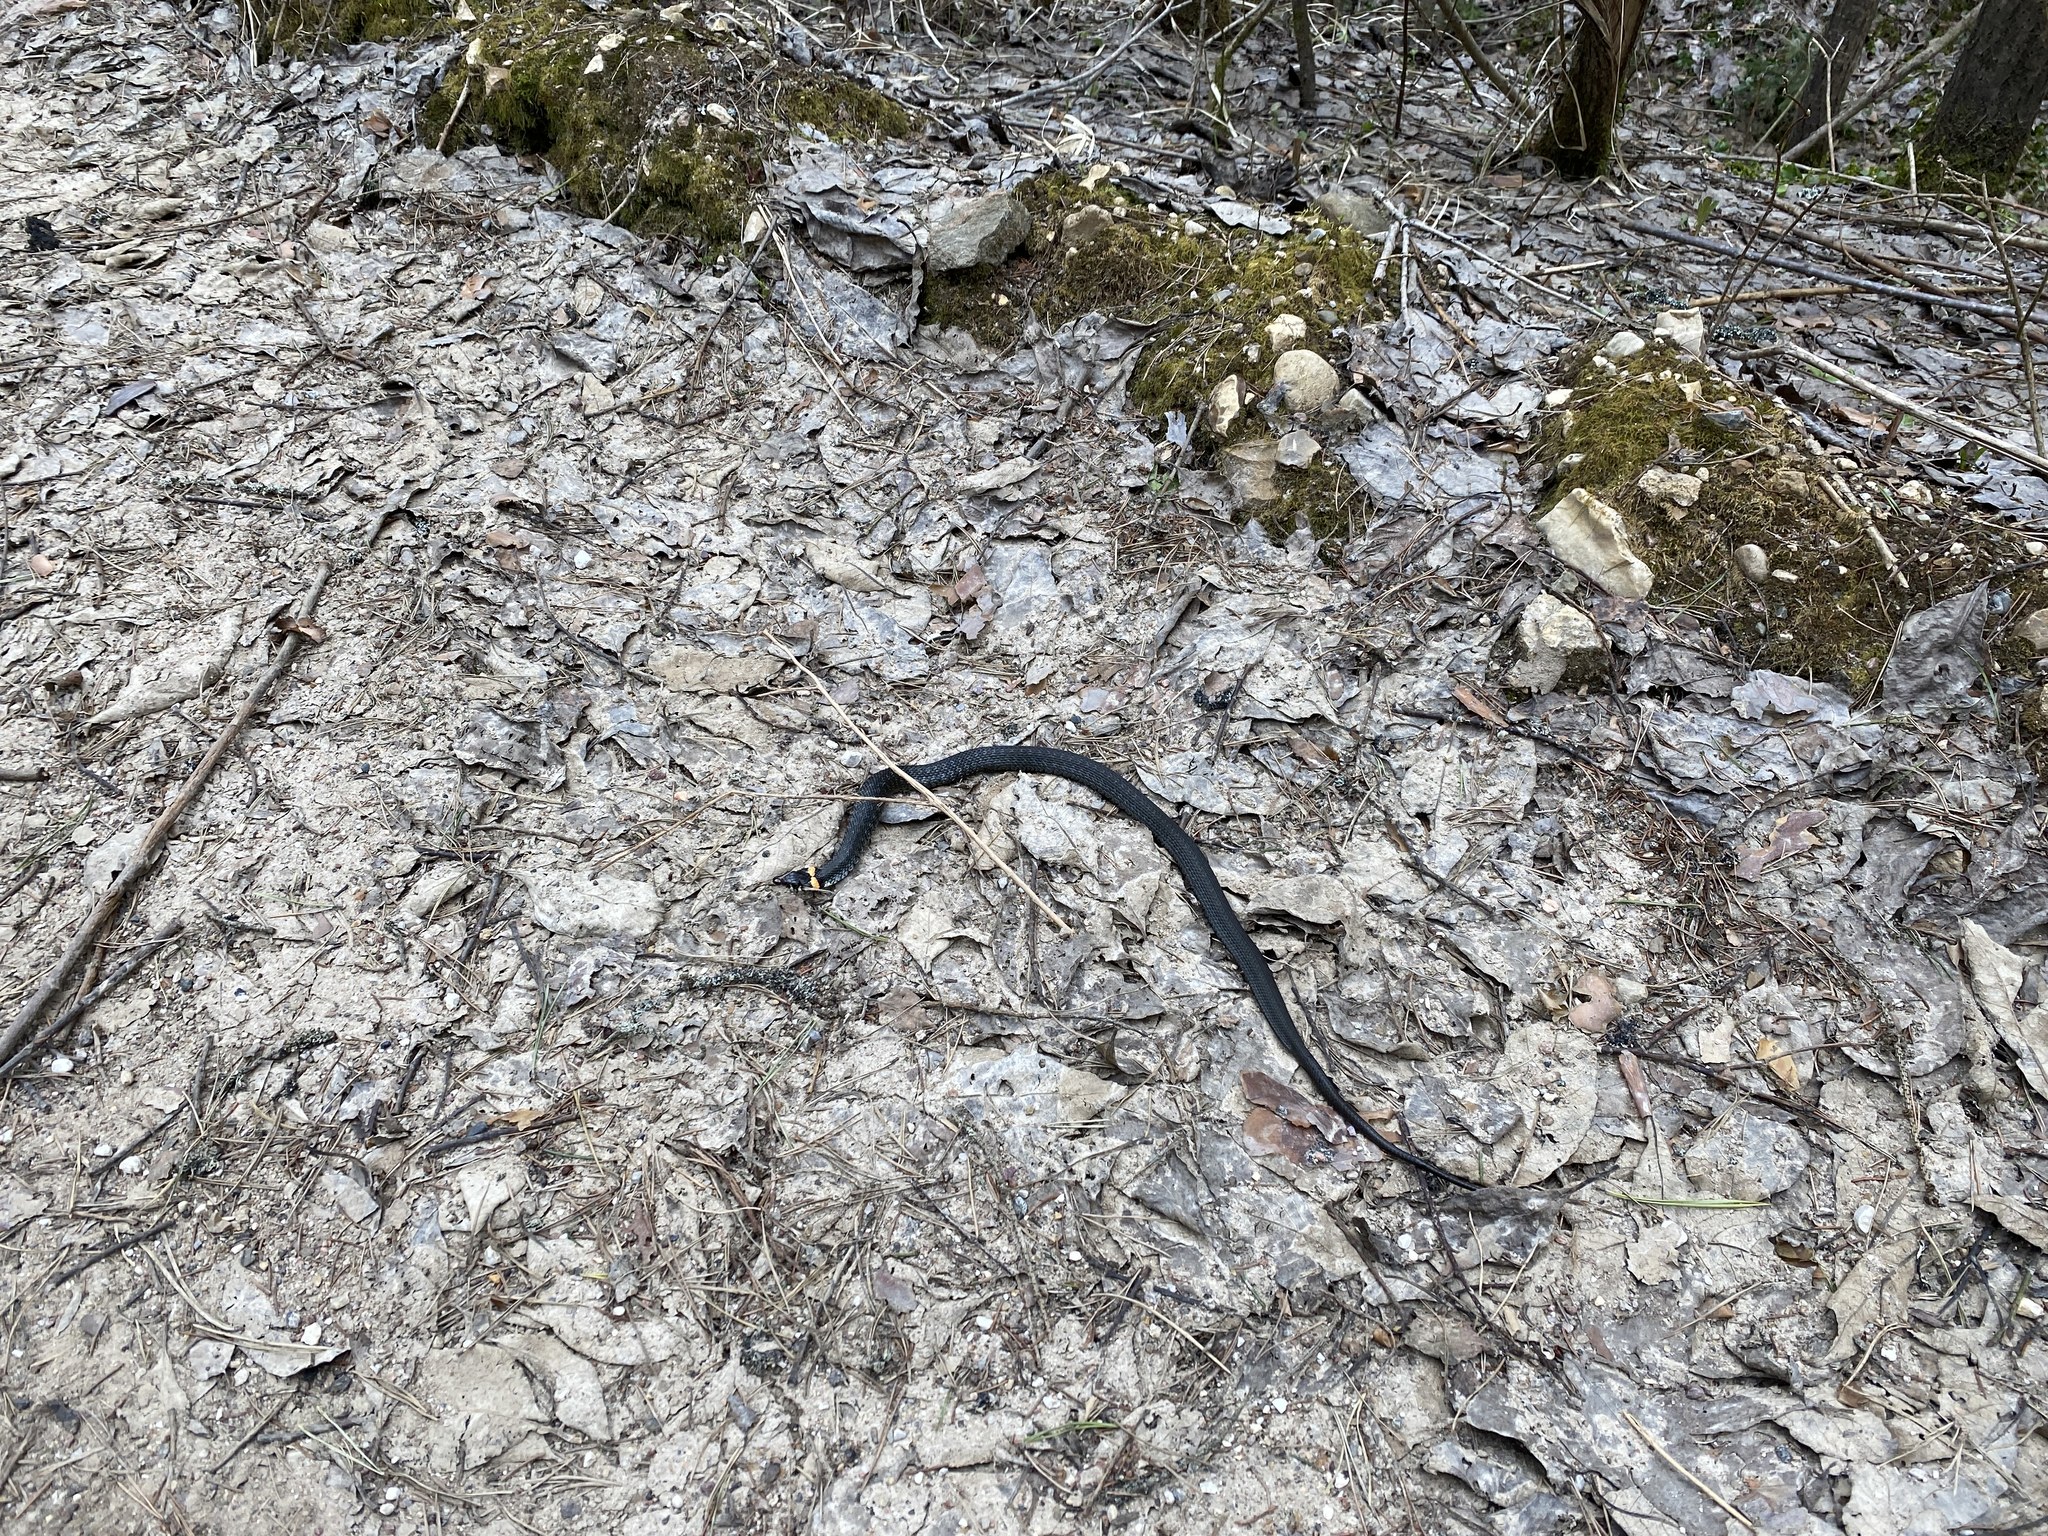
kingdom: Animalia
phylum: Chordata
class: Squamata
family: Colubridae
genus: Natrix
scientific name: Natrix natrix
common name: Grass snake
